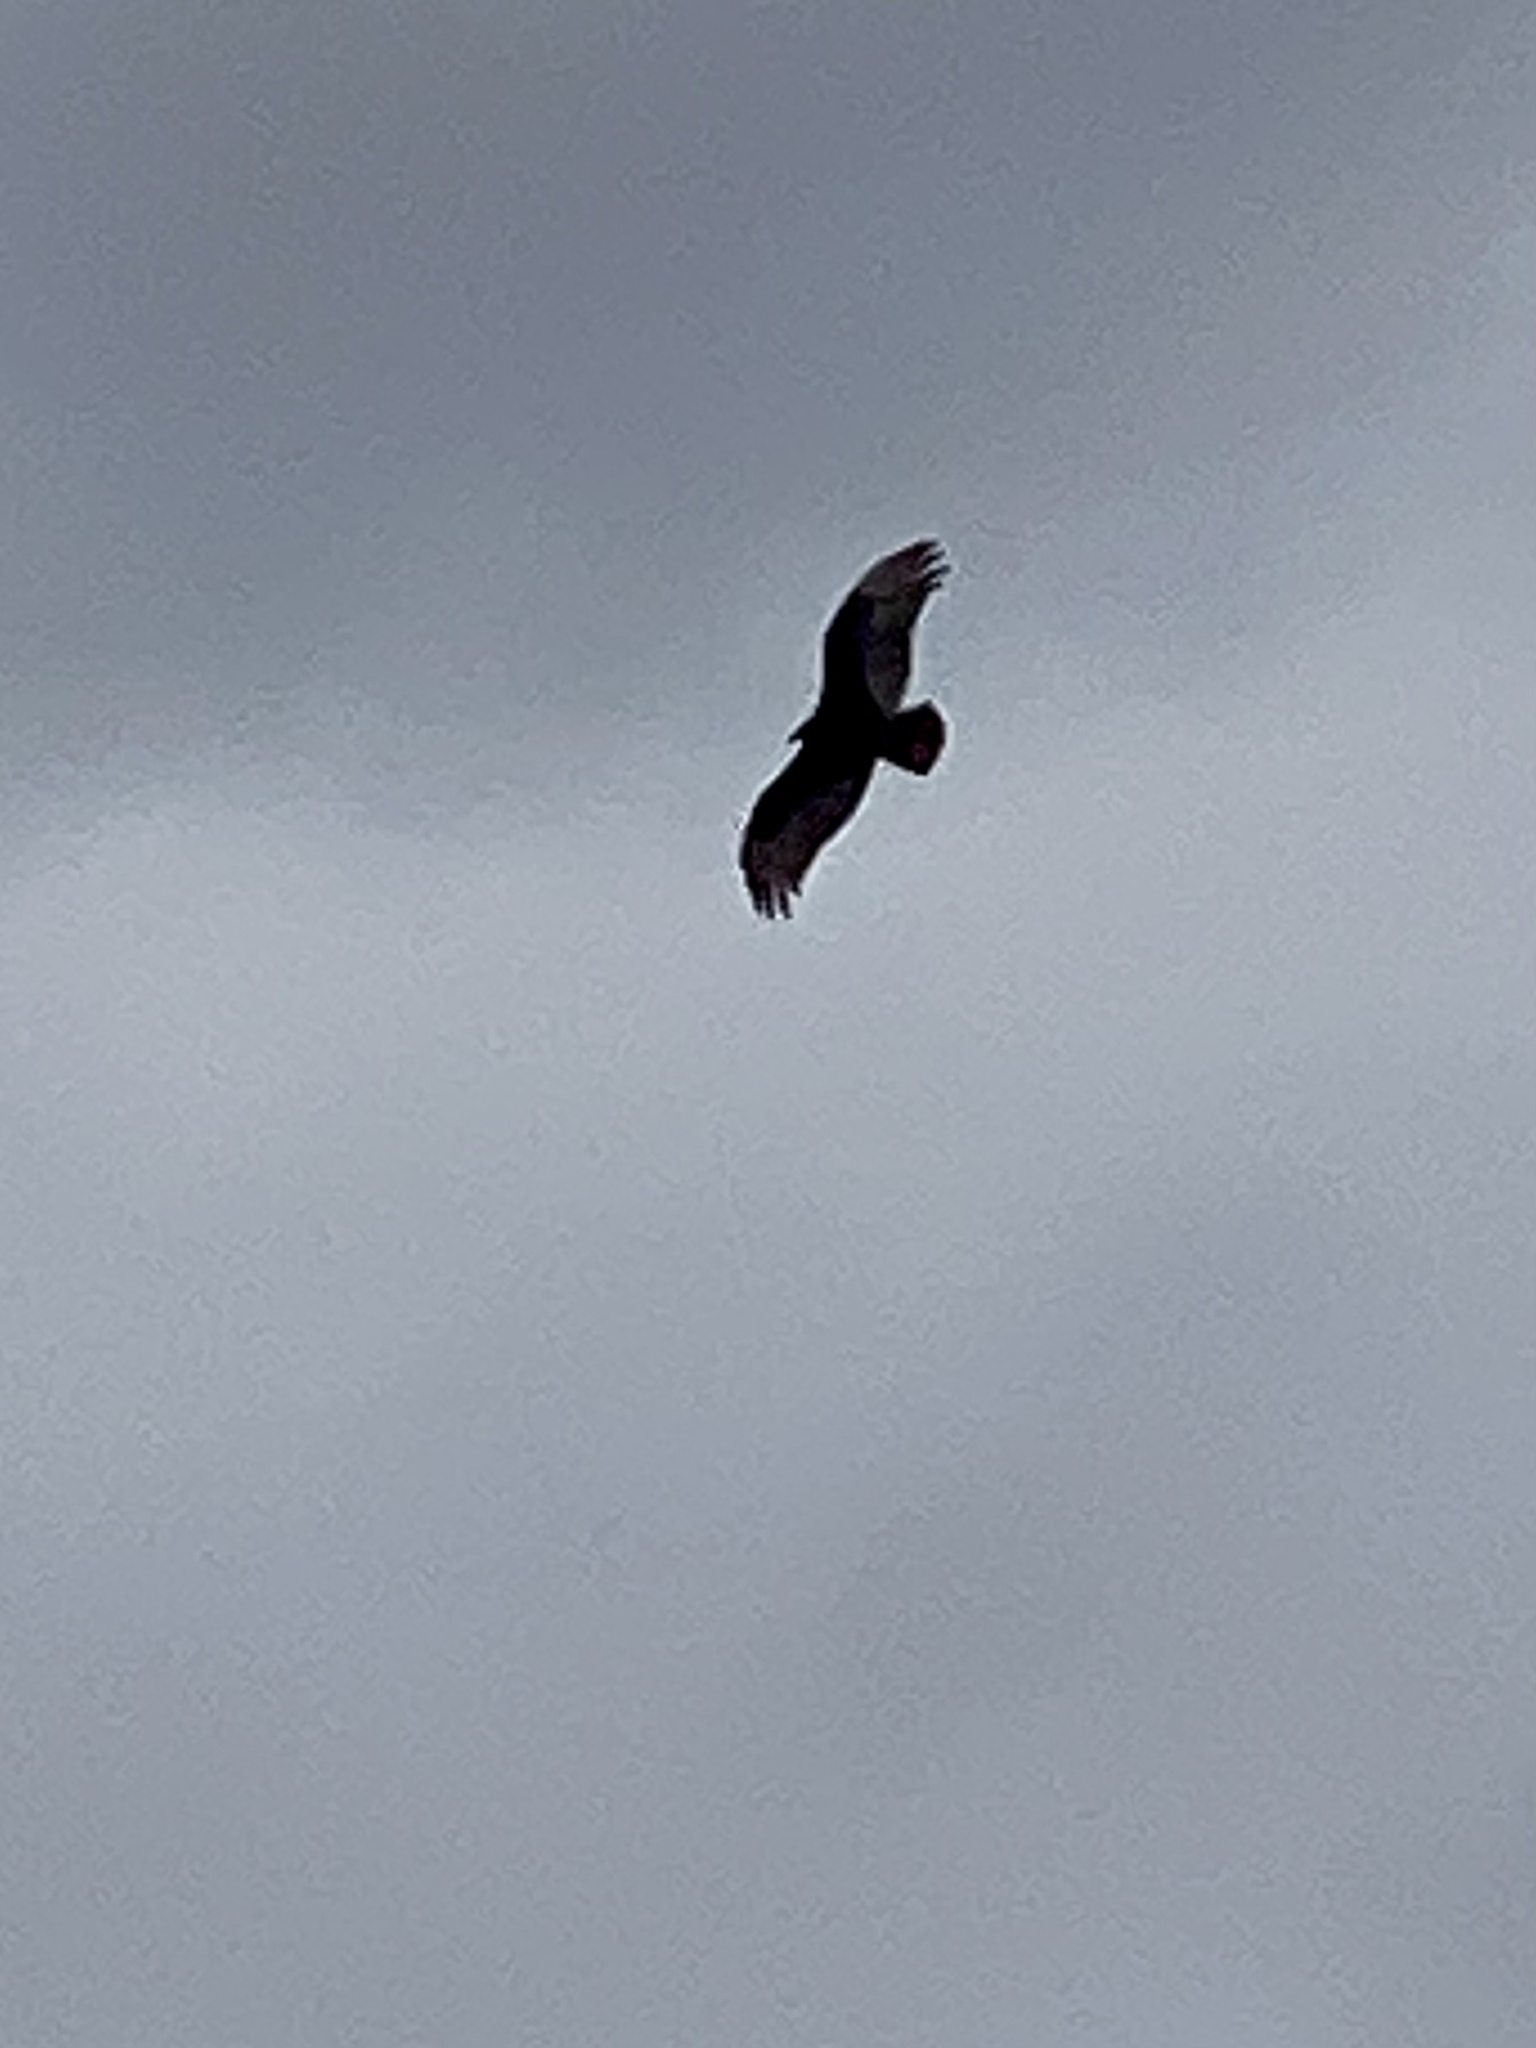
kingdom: Animalia
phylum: Chordata
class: Aves
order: Accipitriformes
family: Cathartidae
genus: Cathartes
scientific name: Cathartes aura
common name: Turkey vulture
